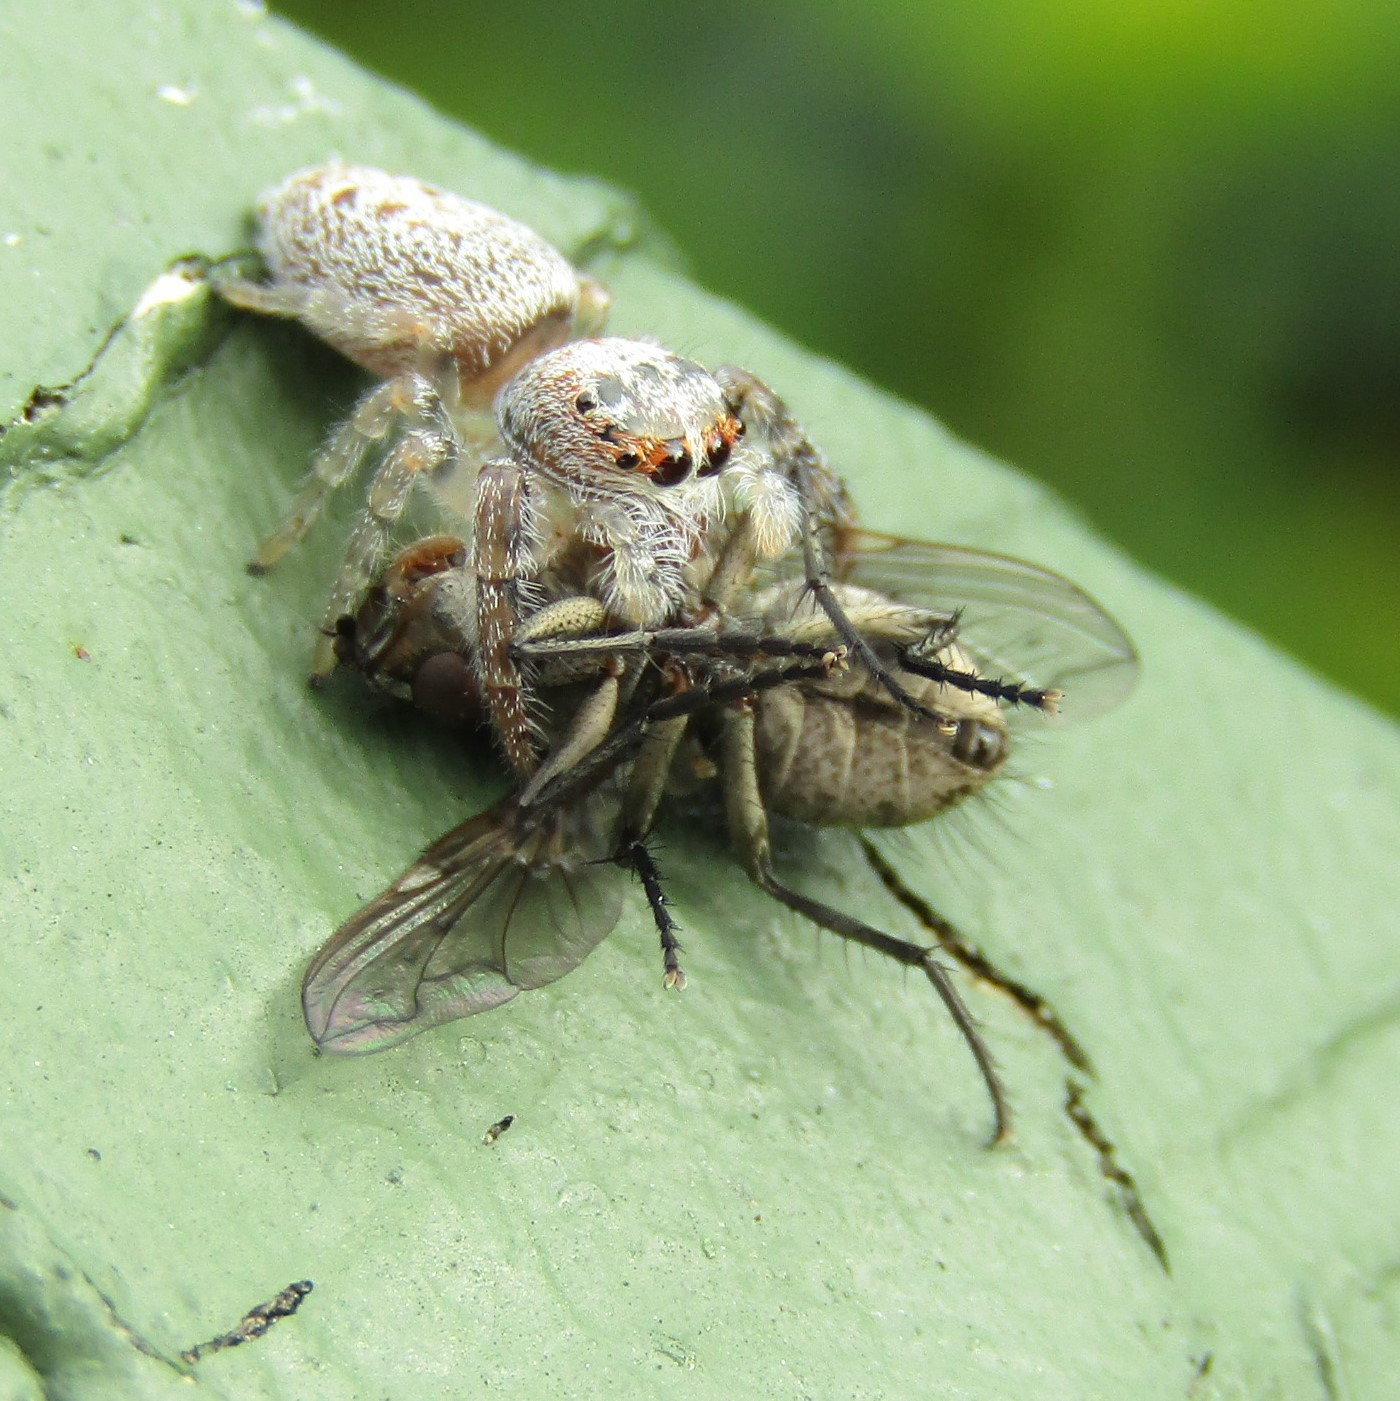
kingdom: Animalia
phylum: Arthropoda
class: Insecta
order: Diptera
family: Tachinidae
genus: Mallochomacquartia
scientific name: Mallochomacquartia vexata
